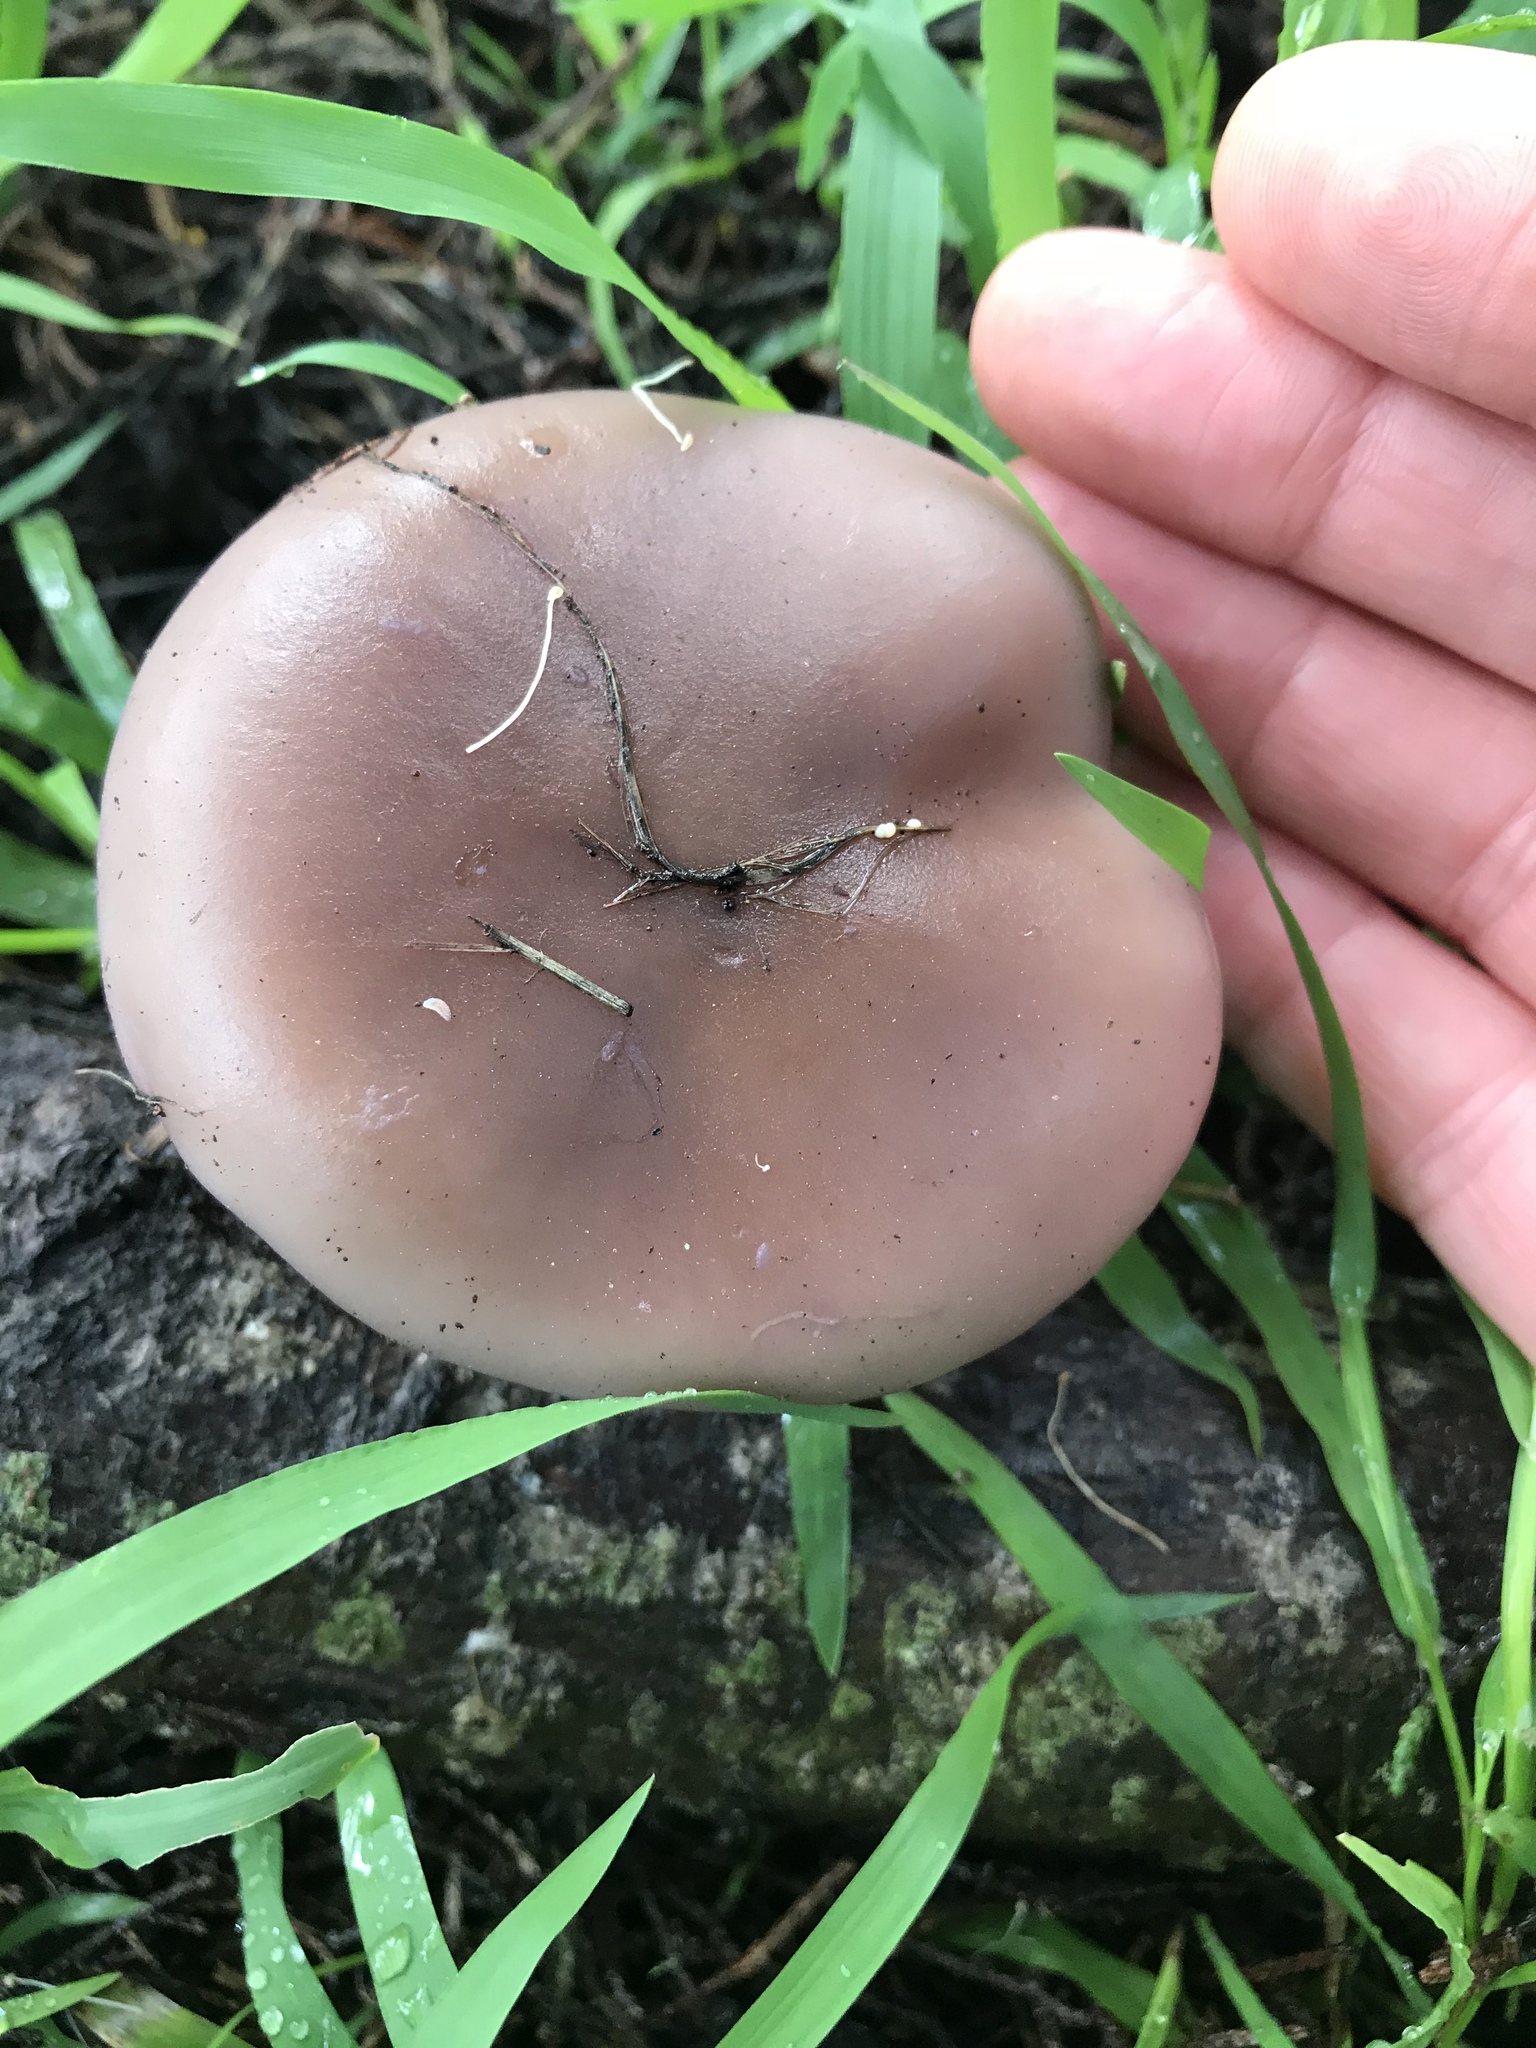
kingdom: Fungi
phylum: Basidiomycota
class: Agaricomycetes
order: Agaricales
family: Tricholomataceae
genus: Collybia
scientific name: Collybia
